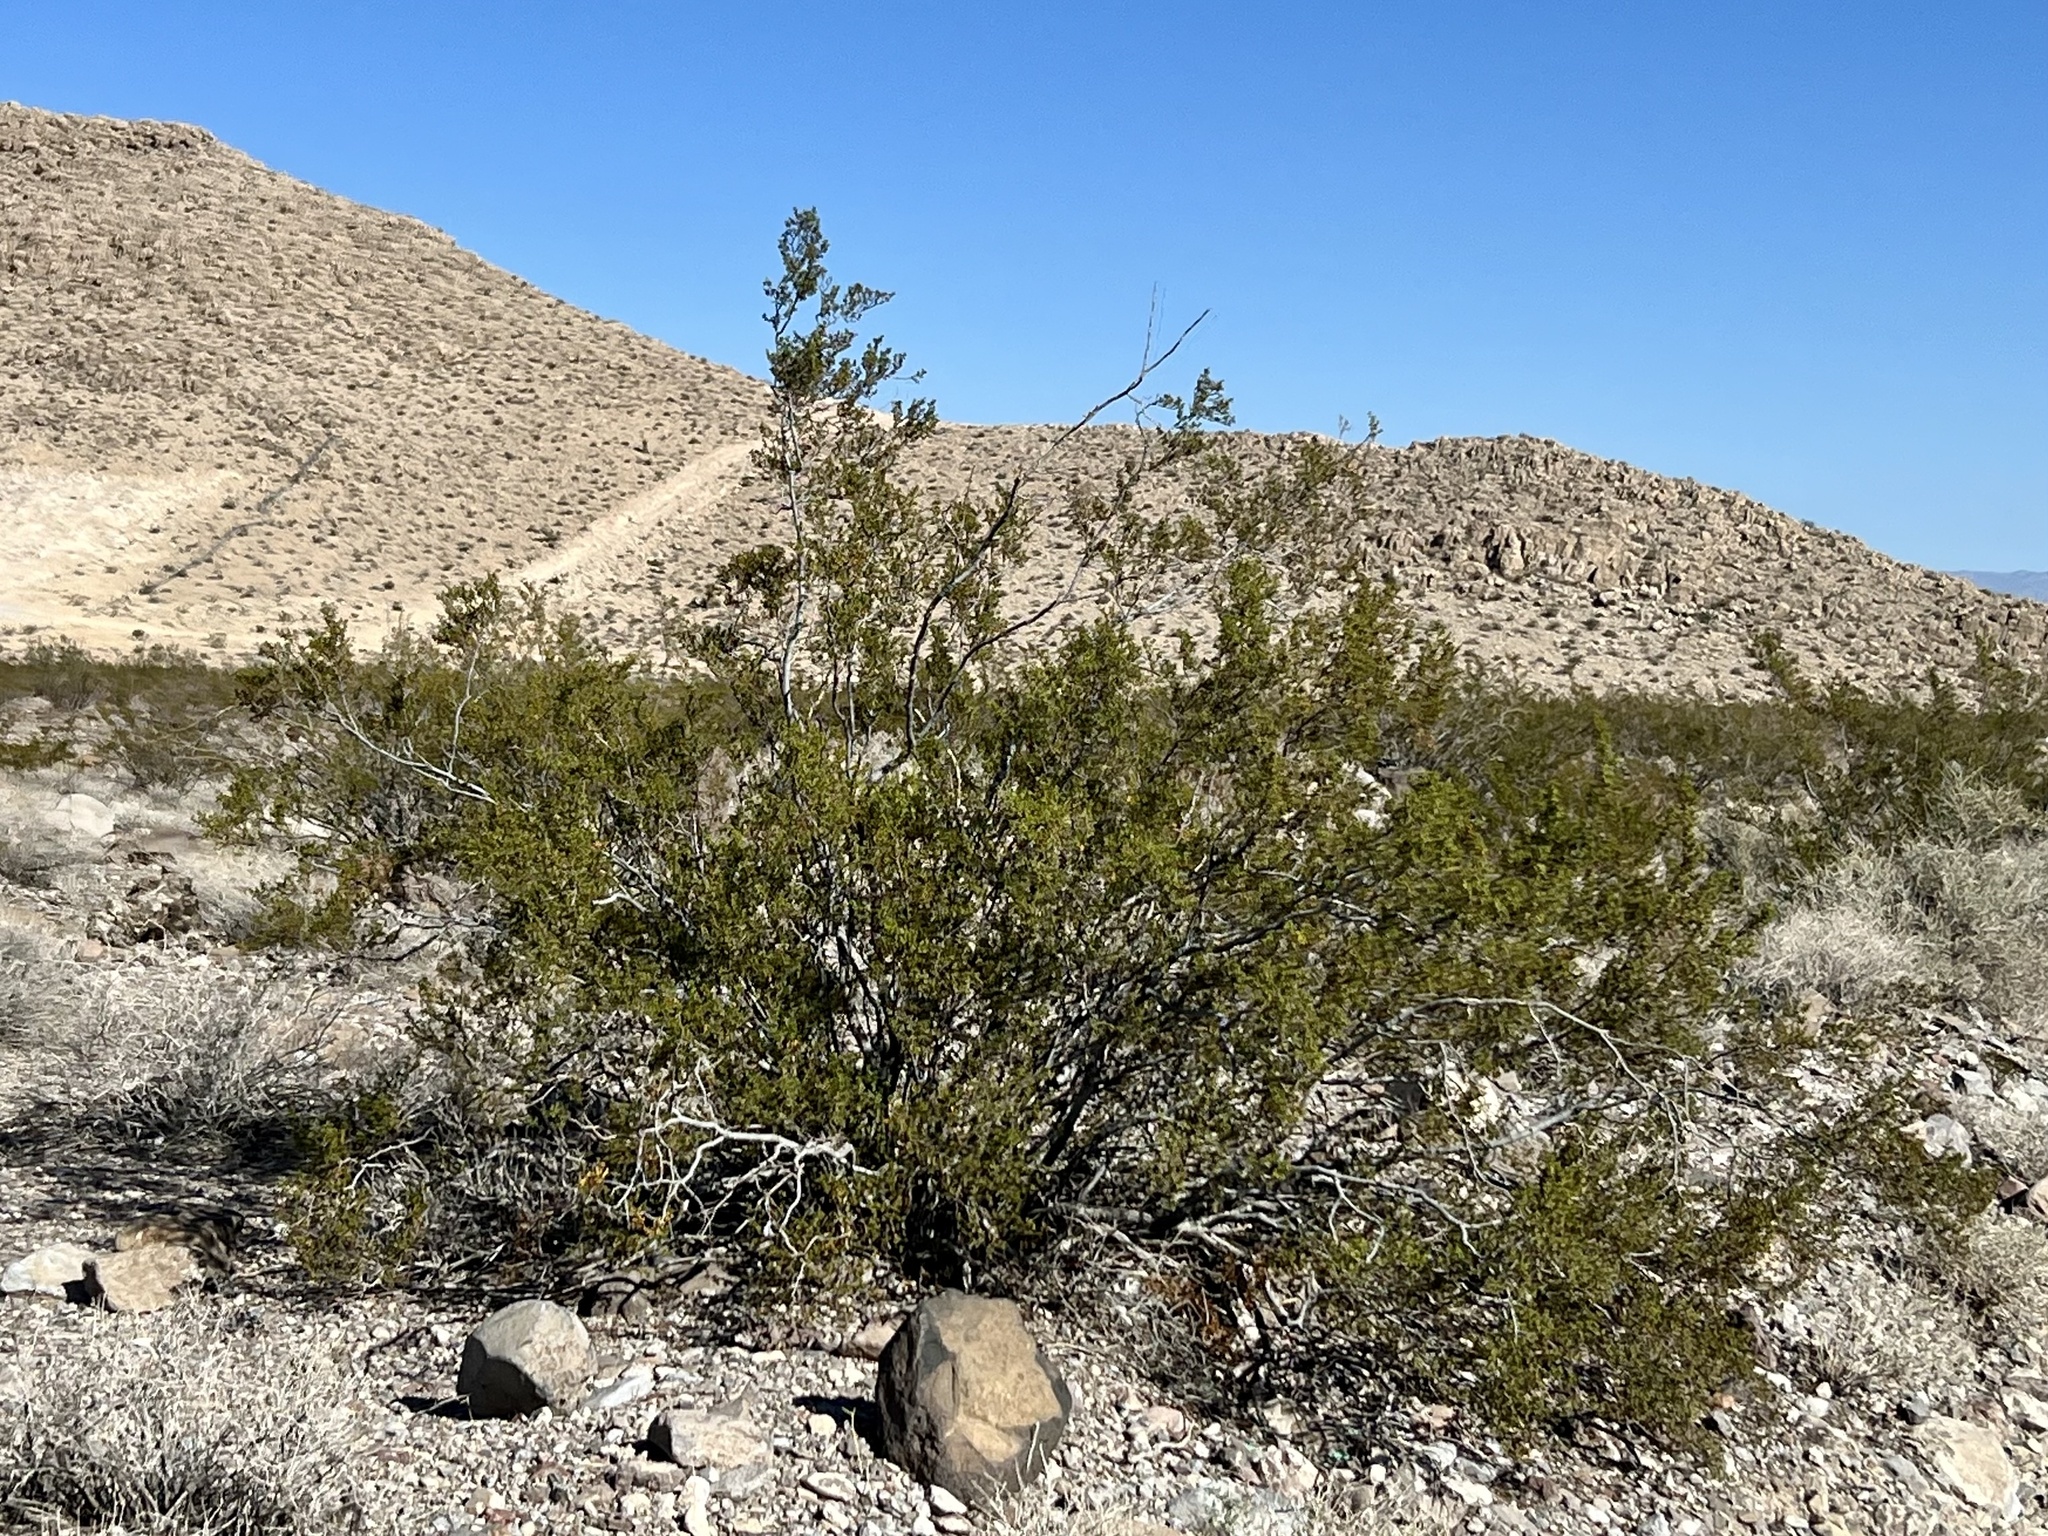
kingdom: Plantae
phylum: Tracheophyta
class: Magnoliopsida
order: Zygophyllales
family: Zygophyllaceae
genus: Larrea
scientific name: Larrea tridentata
